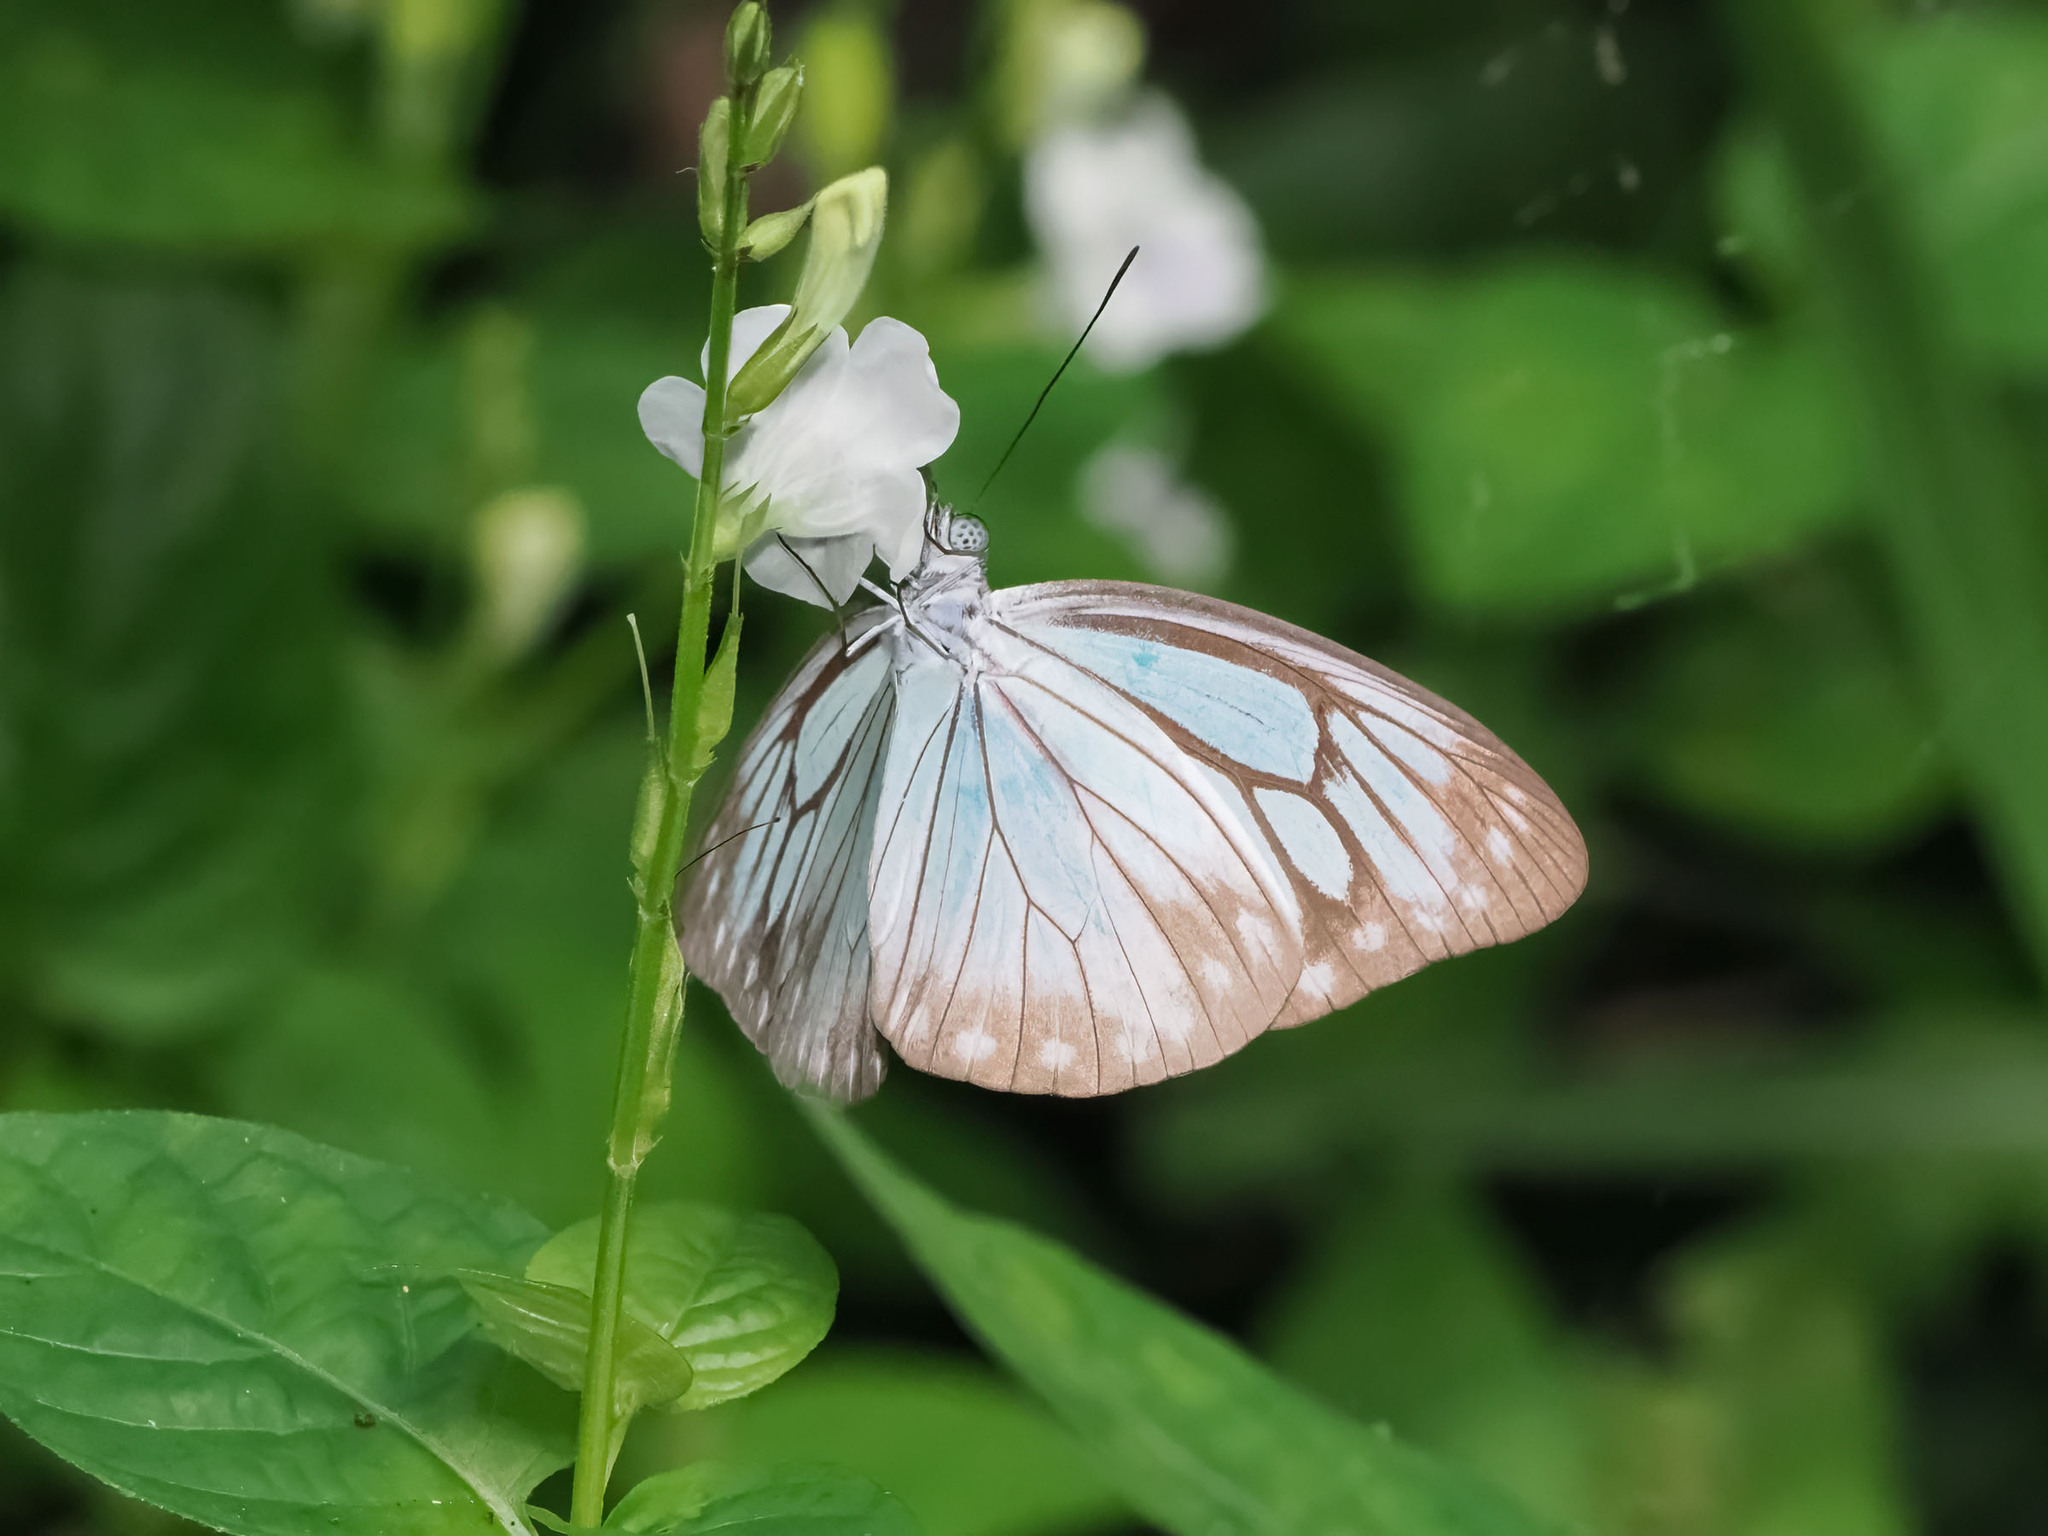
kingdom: Animalia
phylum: Arthropoda
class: Insecta
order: Lepidoptera
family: Pieridae
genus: Pareronia
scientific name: Pareronia boebera
